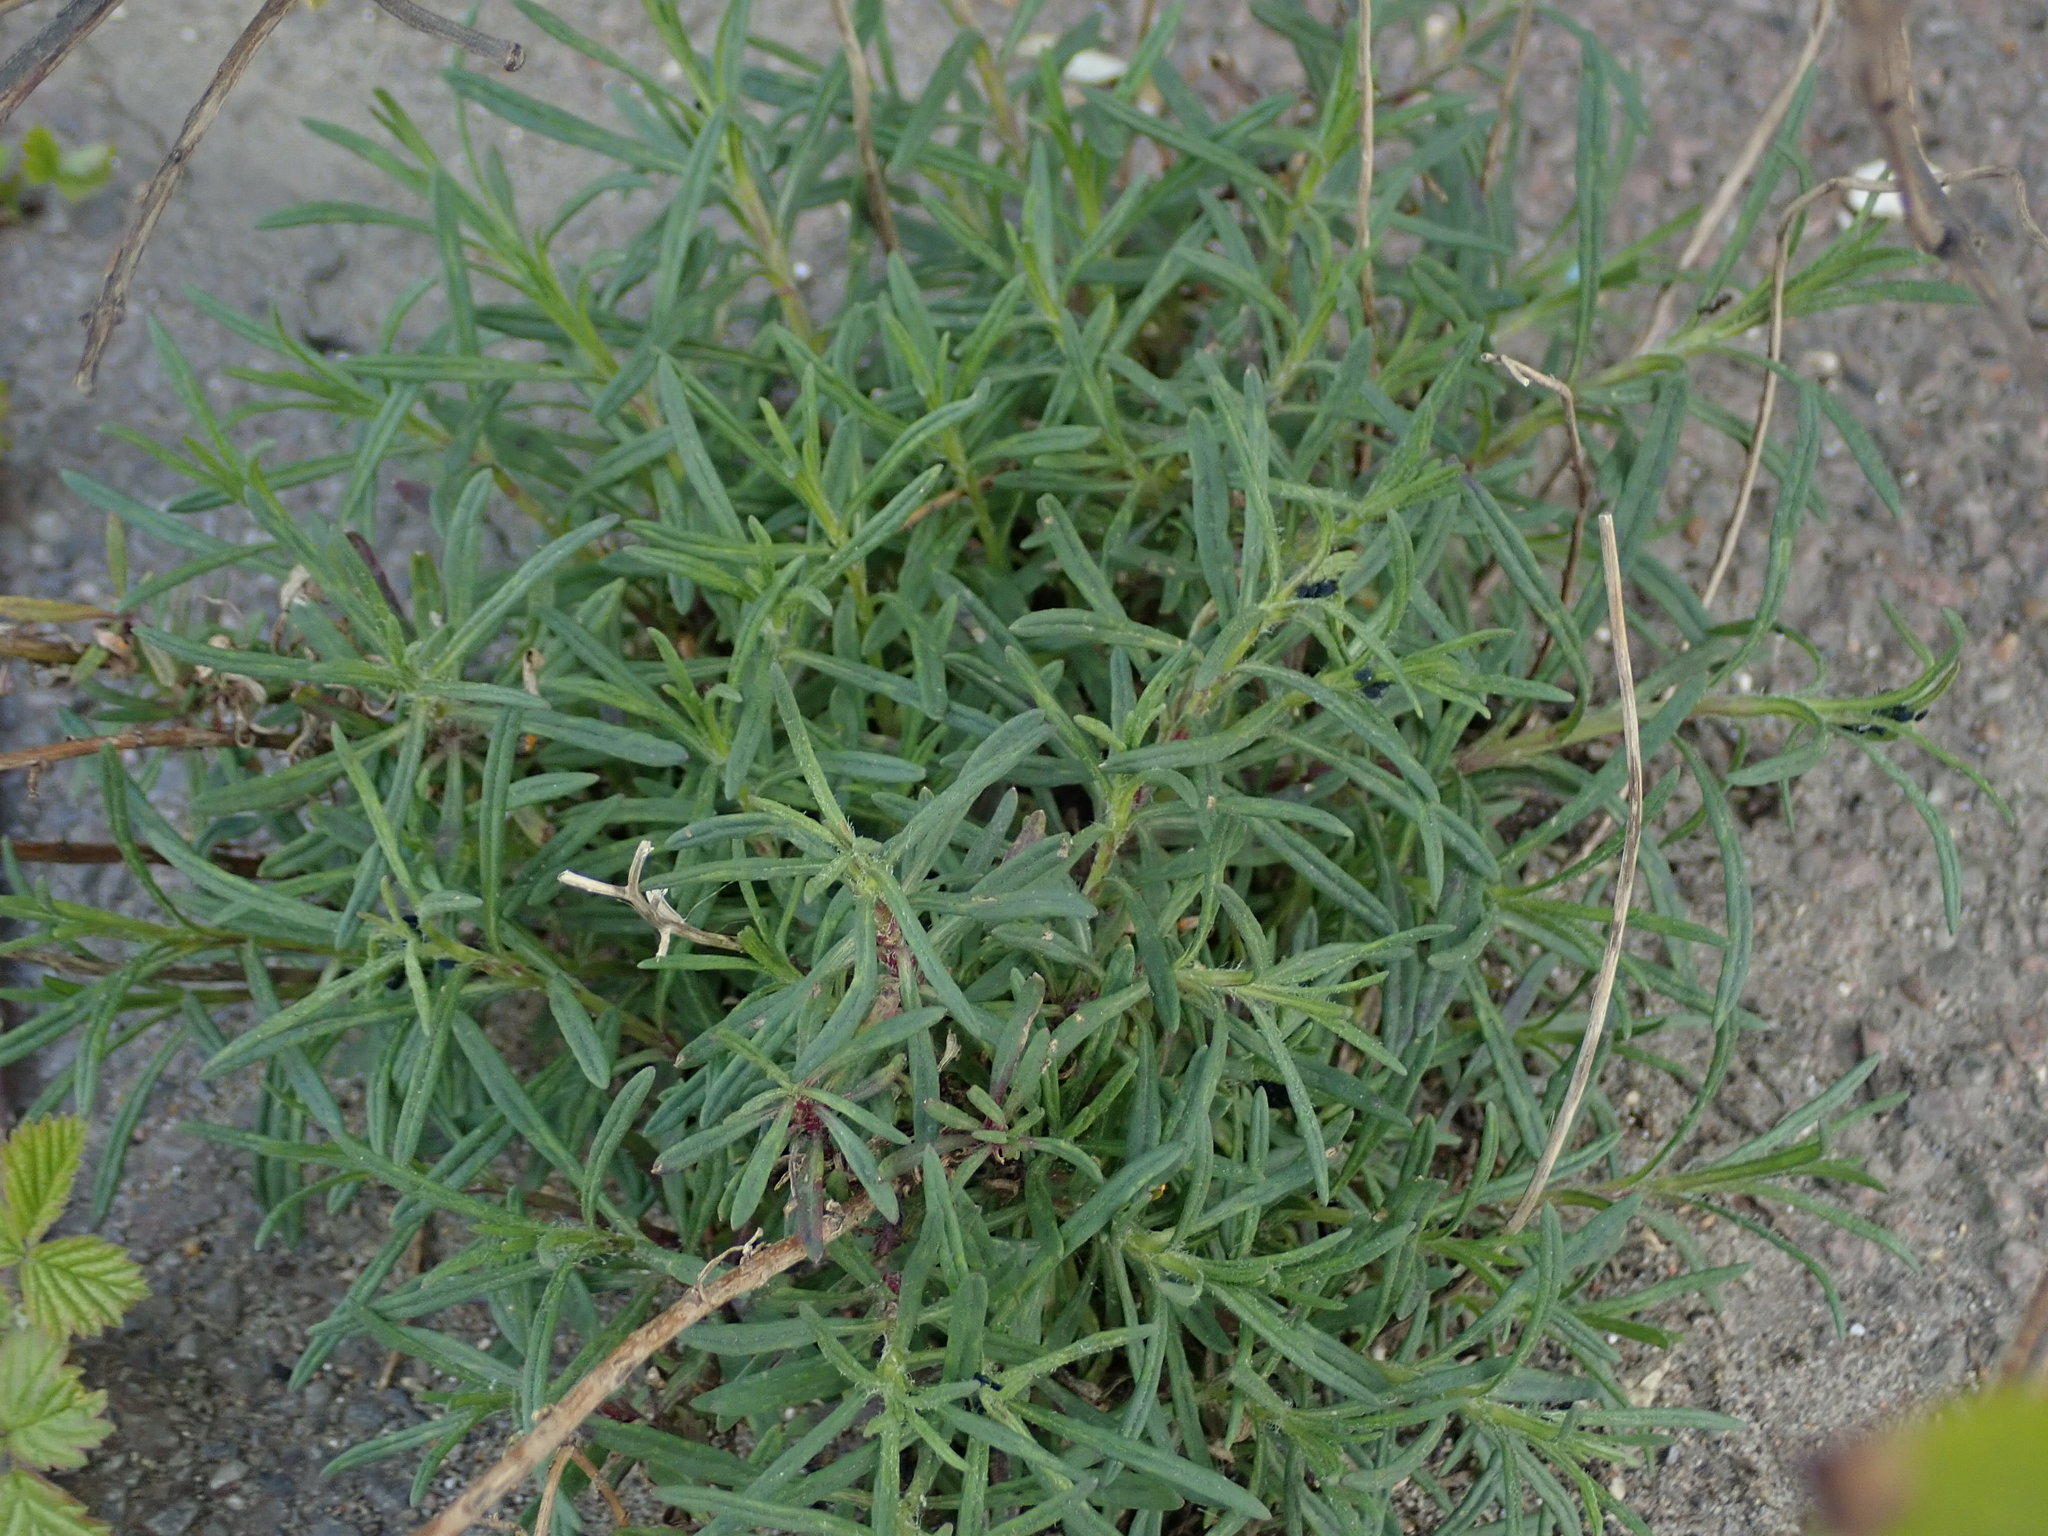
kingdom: Plantae
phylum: Tracheophyta
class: Magnoliopsida
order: Asterales
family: Asteraceae
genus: Senecio
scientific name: Senecio inaequidens
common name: Narrow-leaved ragwort
